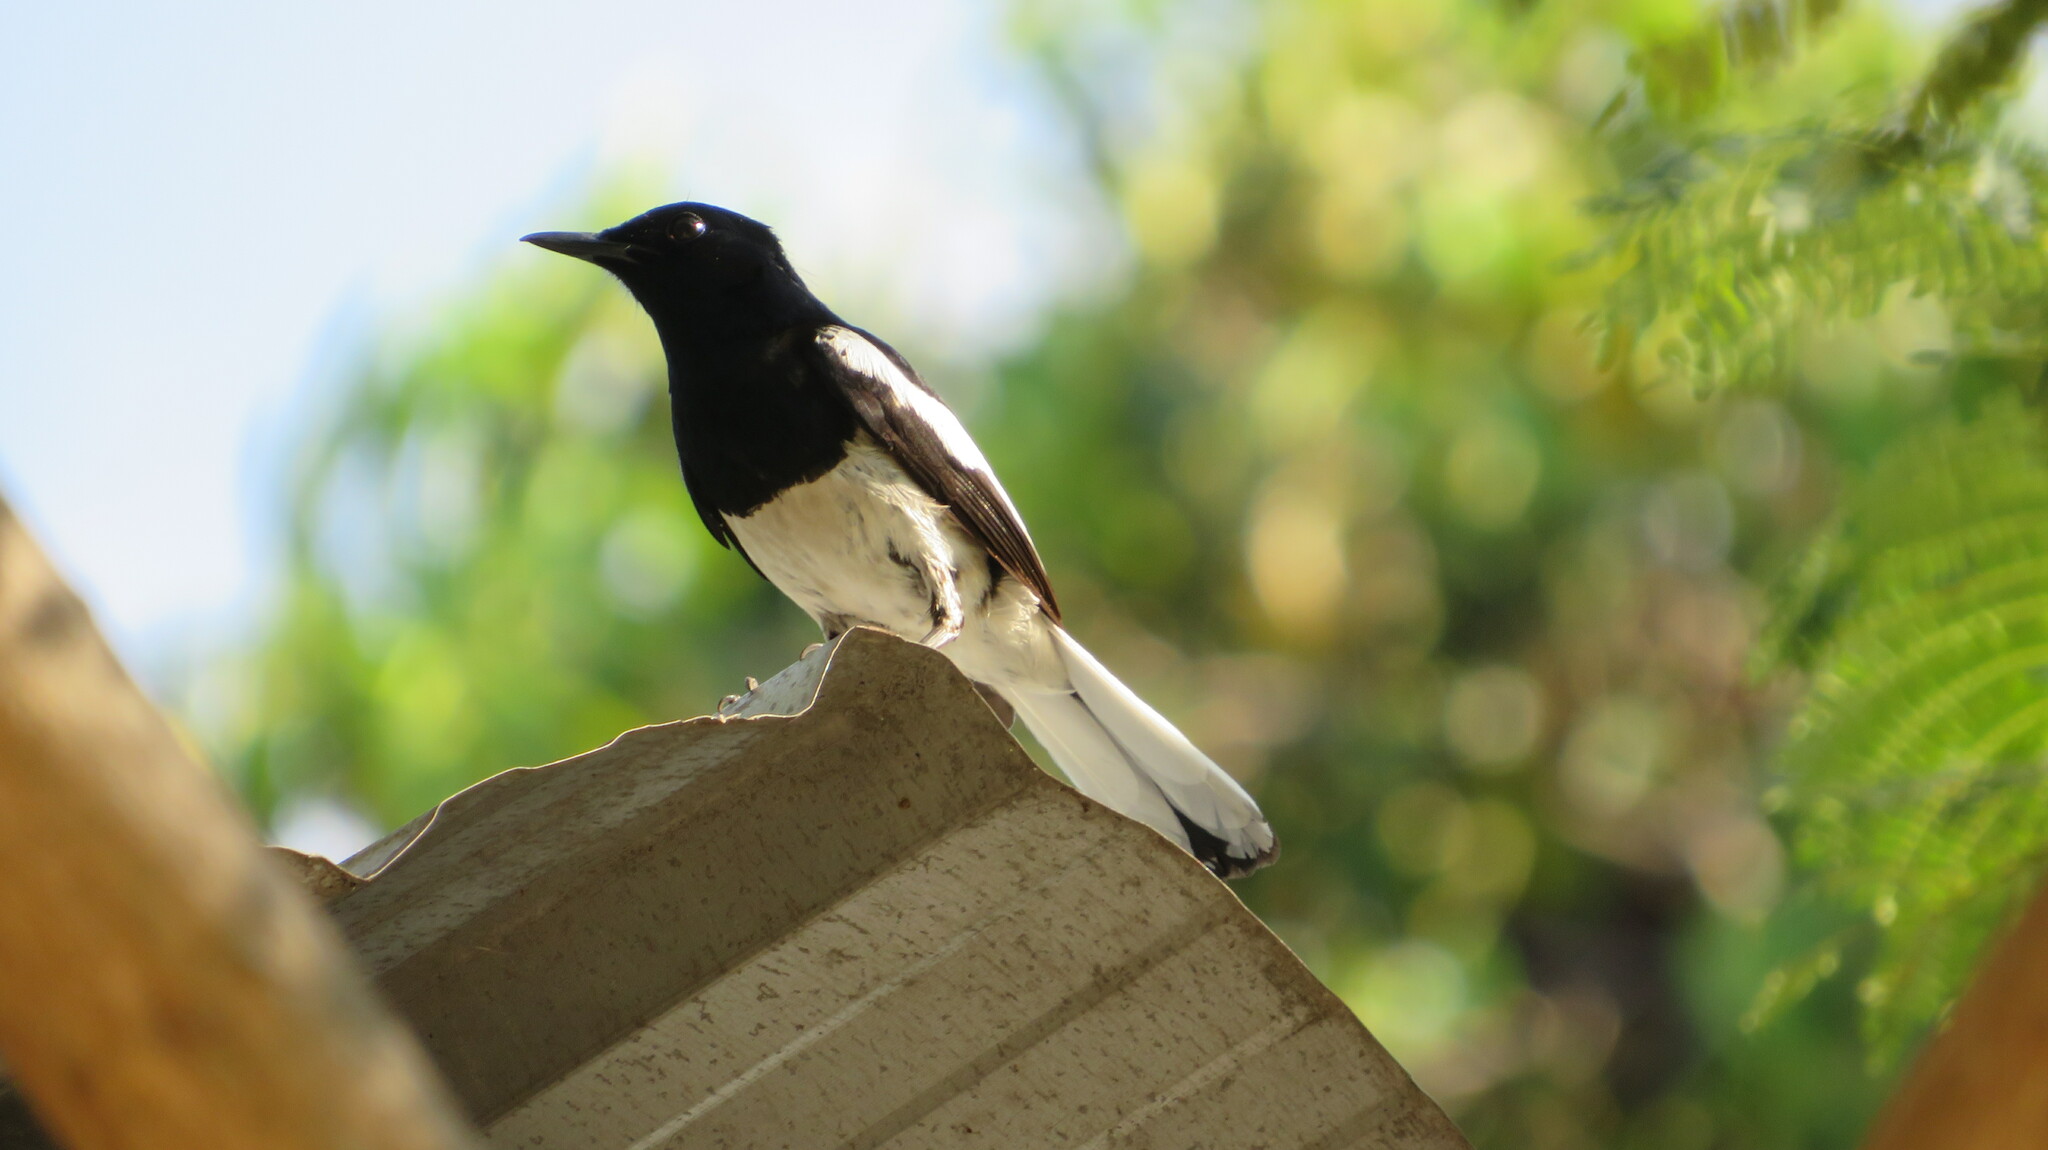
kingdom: Animalia
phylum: Chordata
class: Aves
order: Passeriformes
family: Muscicapidae
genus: Copsychus
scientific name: Copsychus saularis
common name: Oriental magpie-robin
